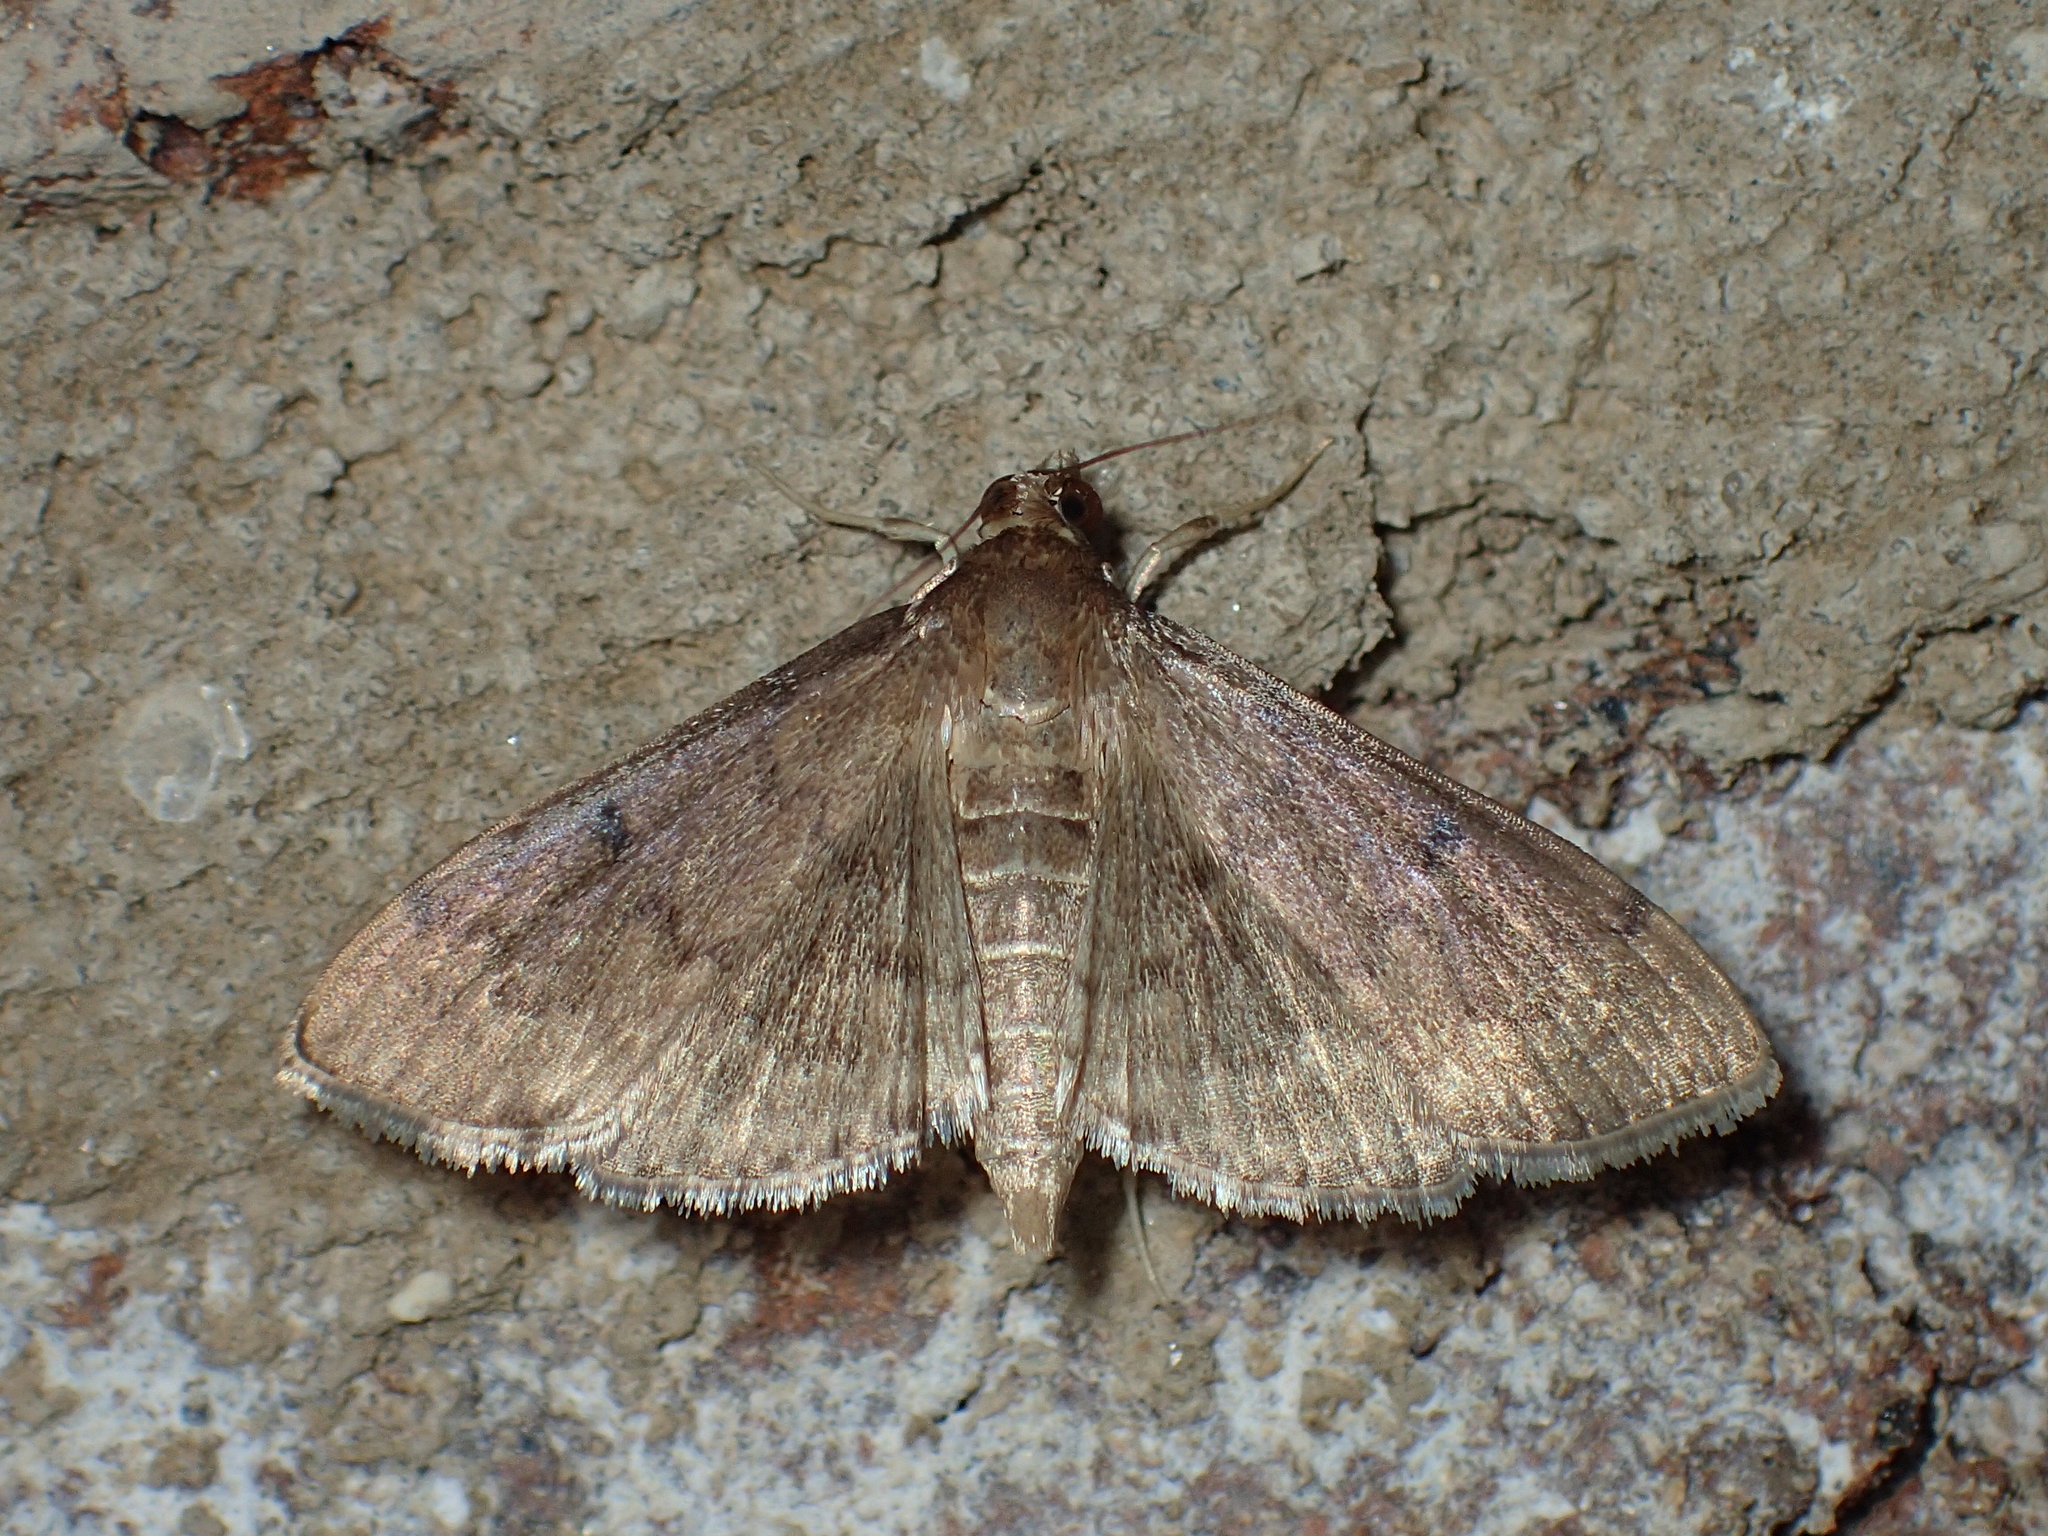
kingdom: Animalia
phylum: Arthropoda
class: Insecta
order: Lepidoptera
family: Crambidae
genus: Herpetogramma
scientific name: Herpetogramma phaeopteralis
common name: Dusky herpetogramma moth
